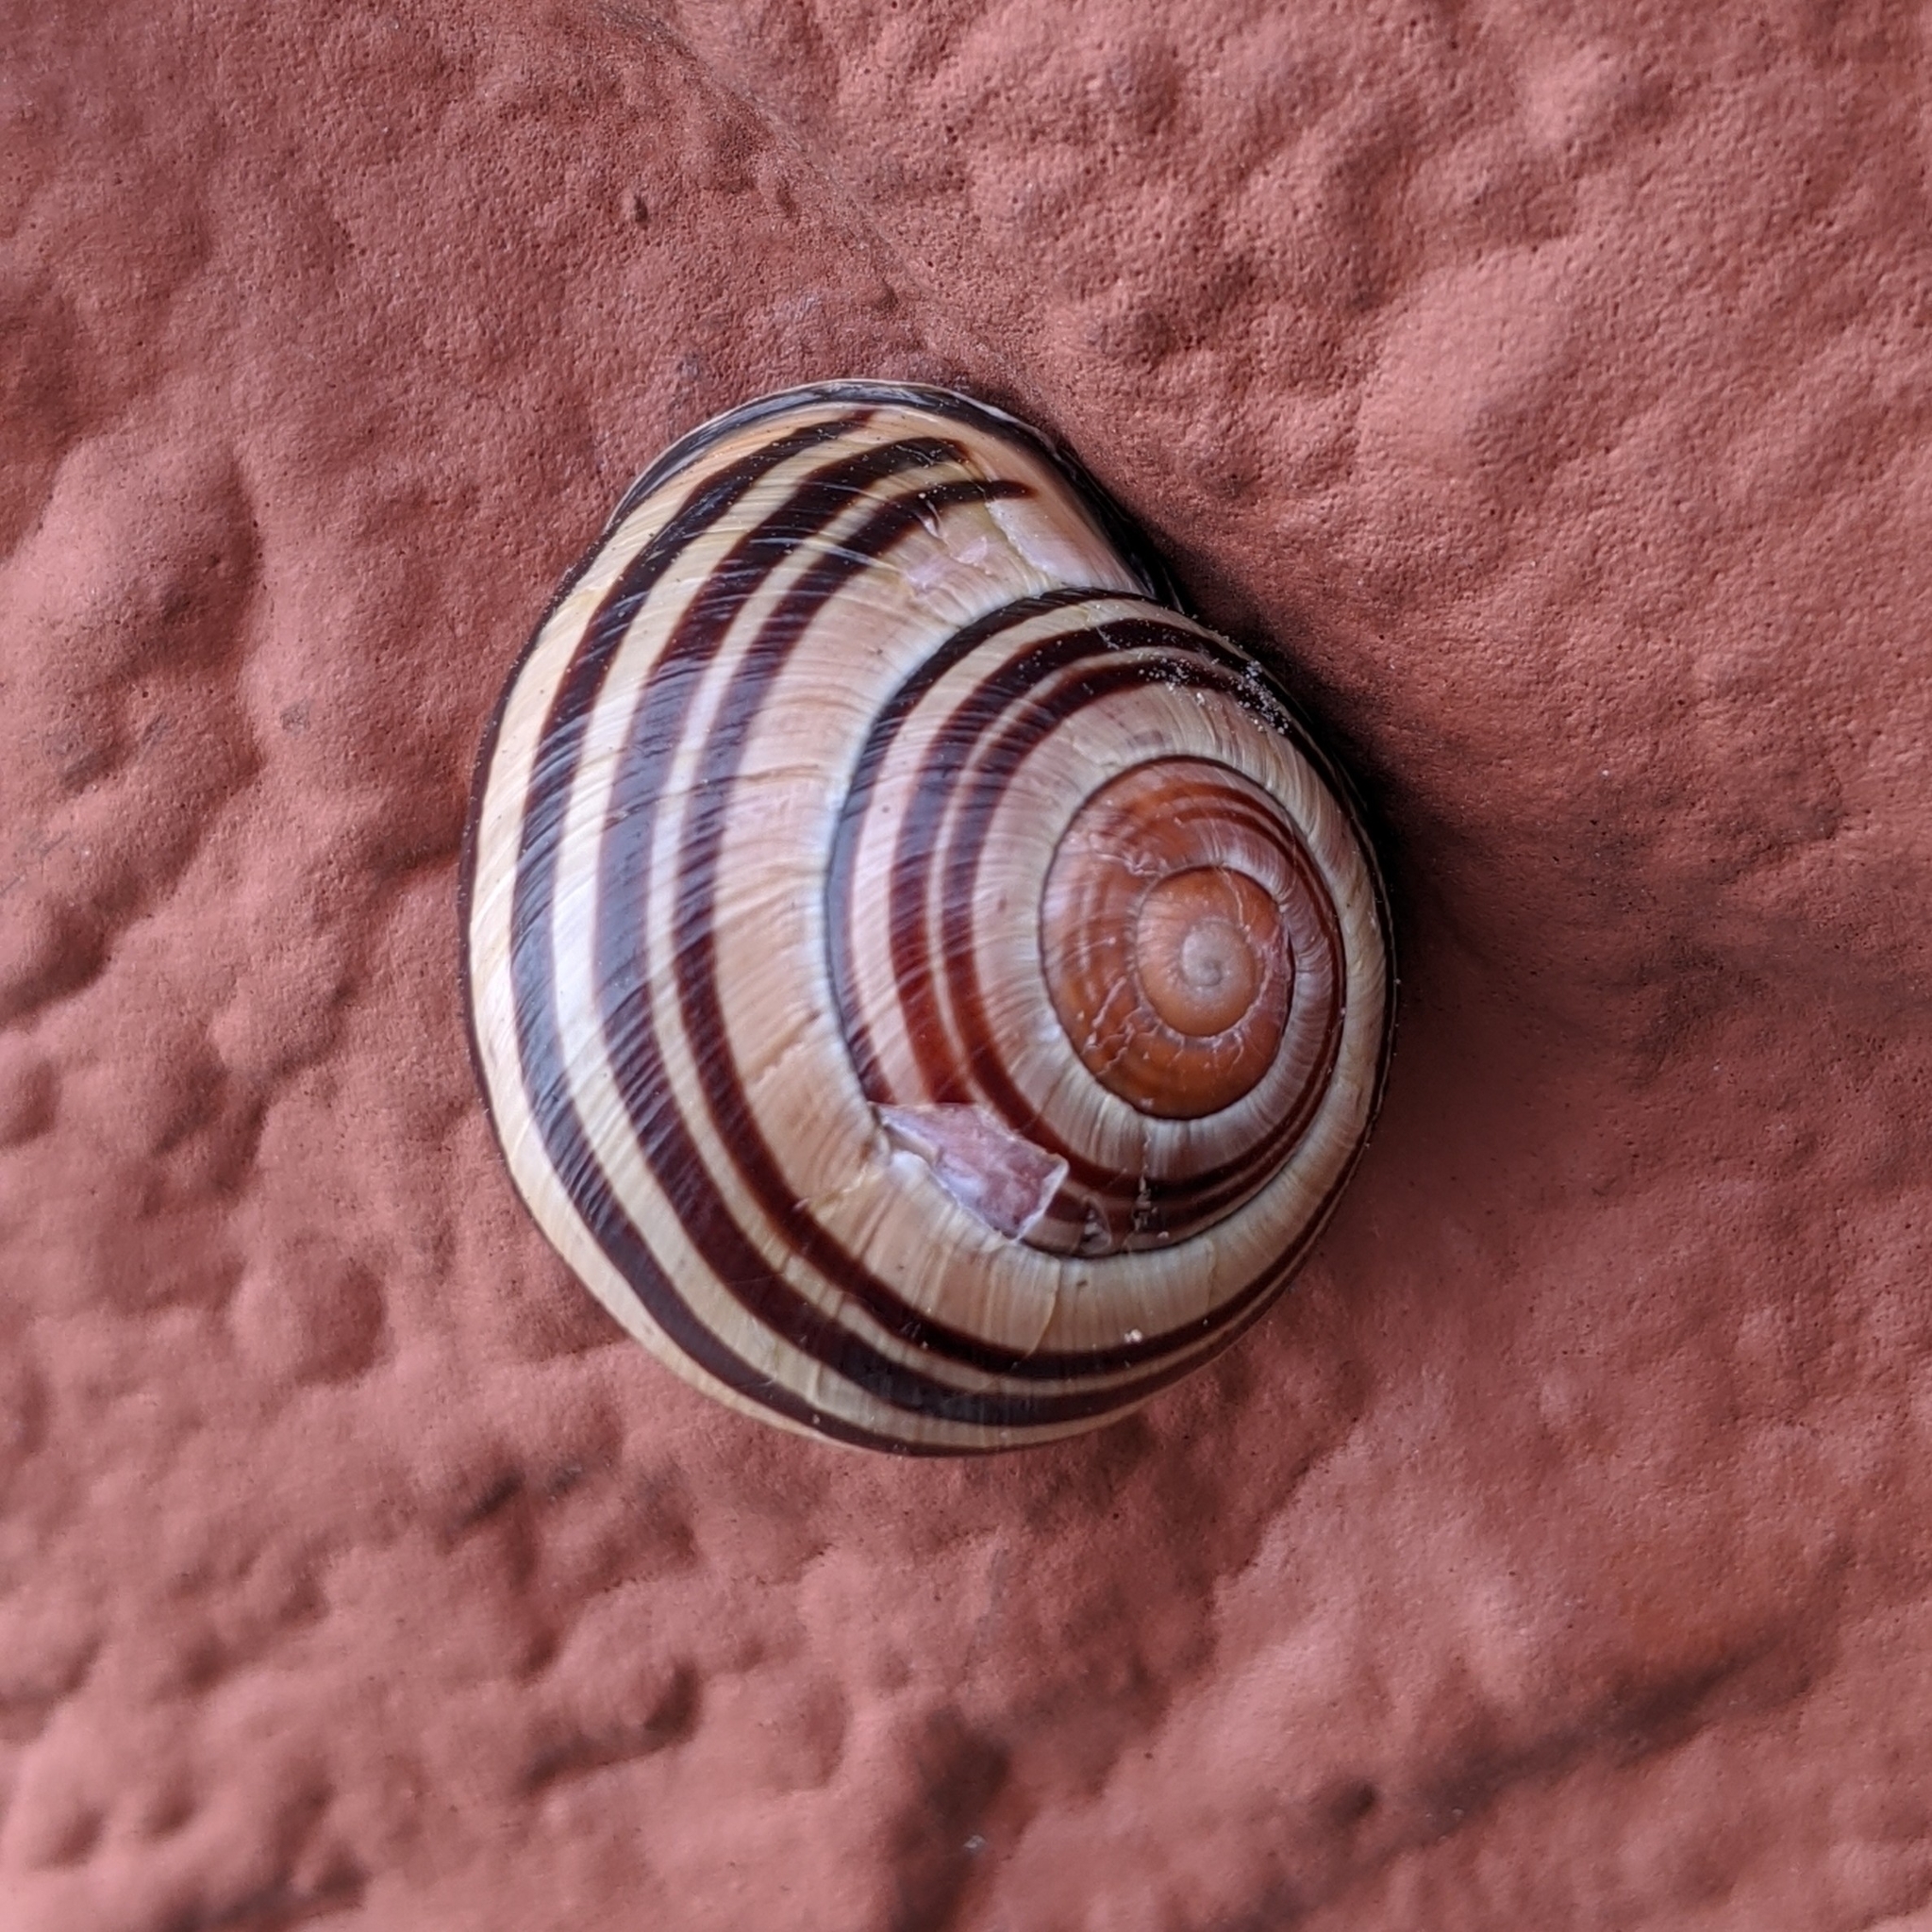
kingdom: Animalia
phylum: Mollusca
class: Gastropoda
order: Stylommatophora
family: Helicidae
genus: Cepaea
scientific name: Cepaea nemoralis
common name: Grovesnail
